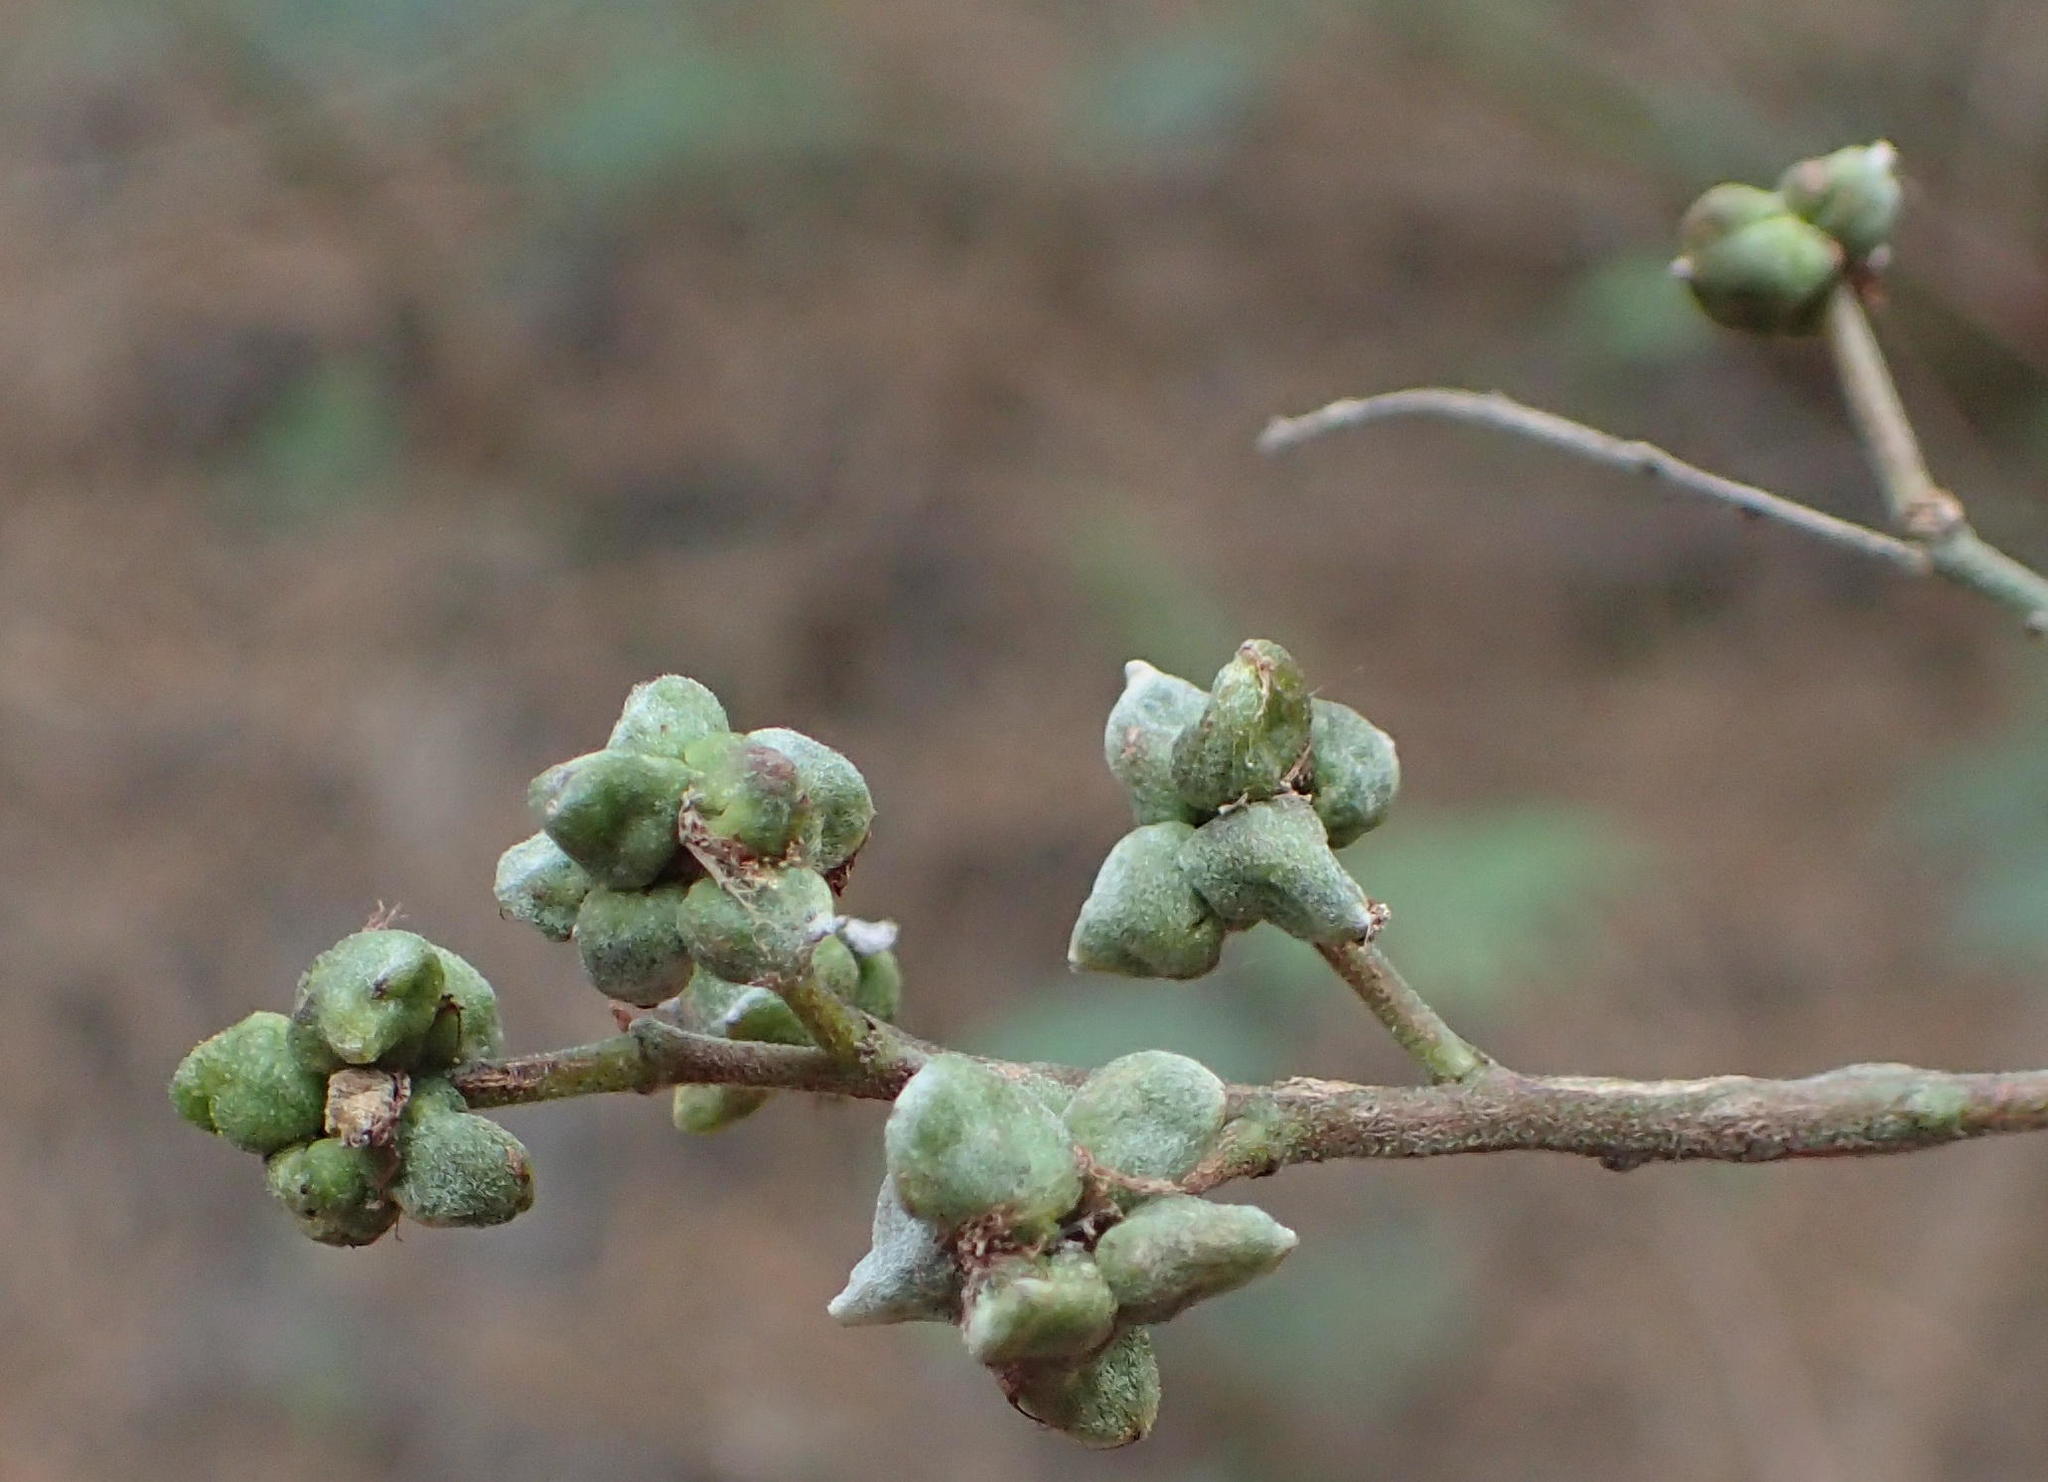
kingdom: Animalia
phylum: Arthropoda
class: Insecta
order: Diptera
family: Cecidomyiidae
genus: Dasineura
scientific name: Dasineura rubiformis
